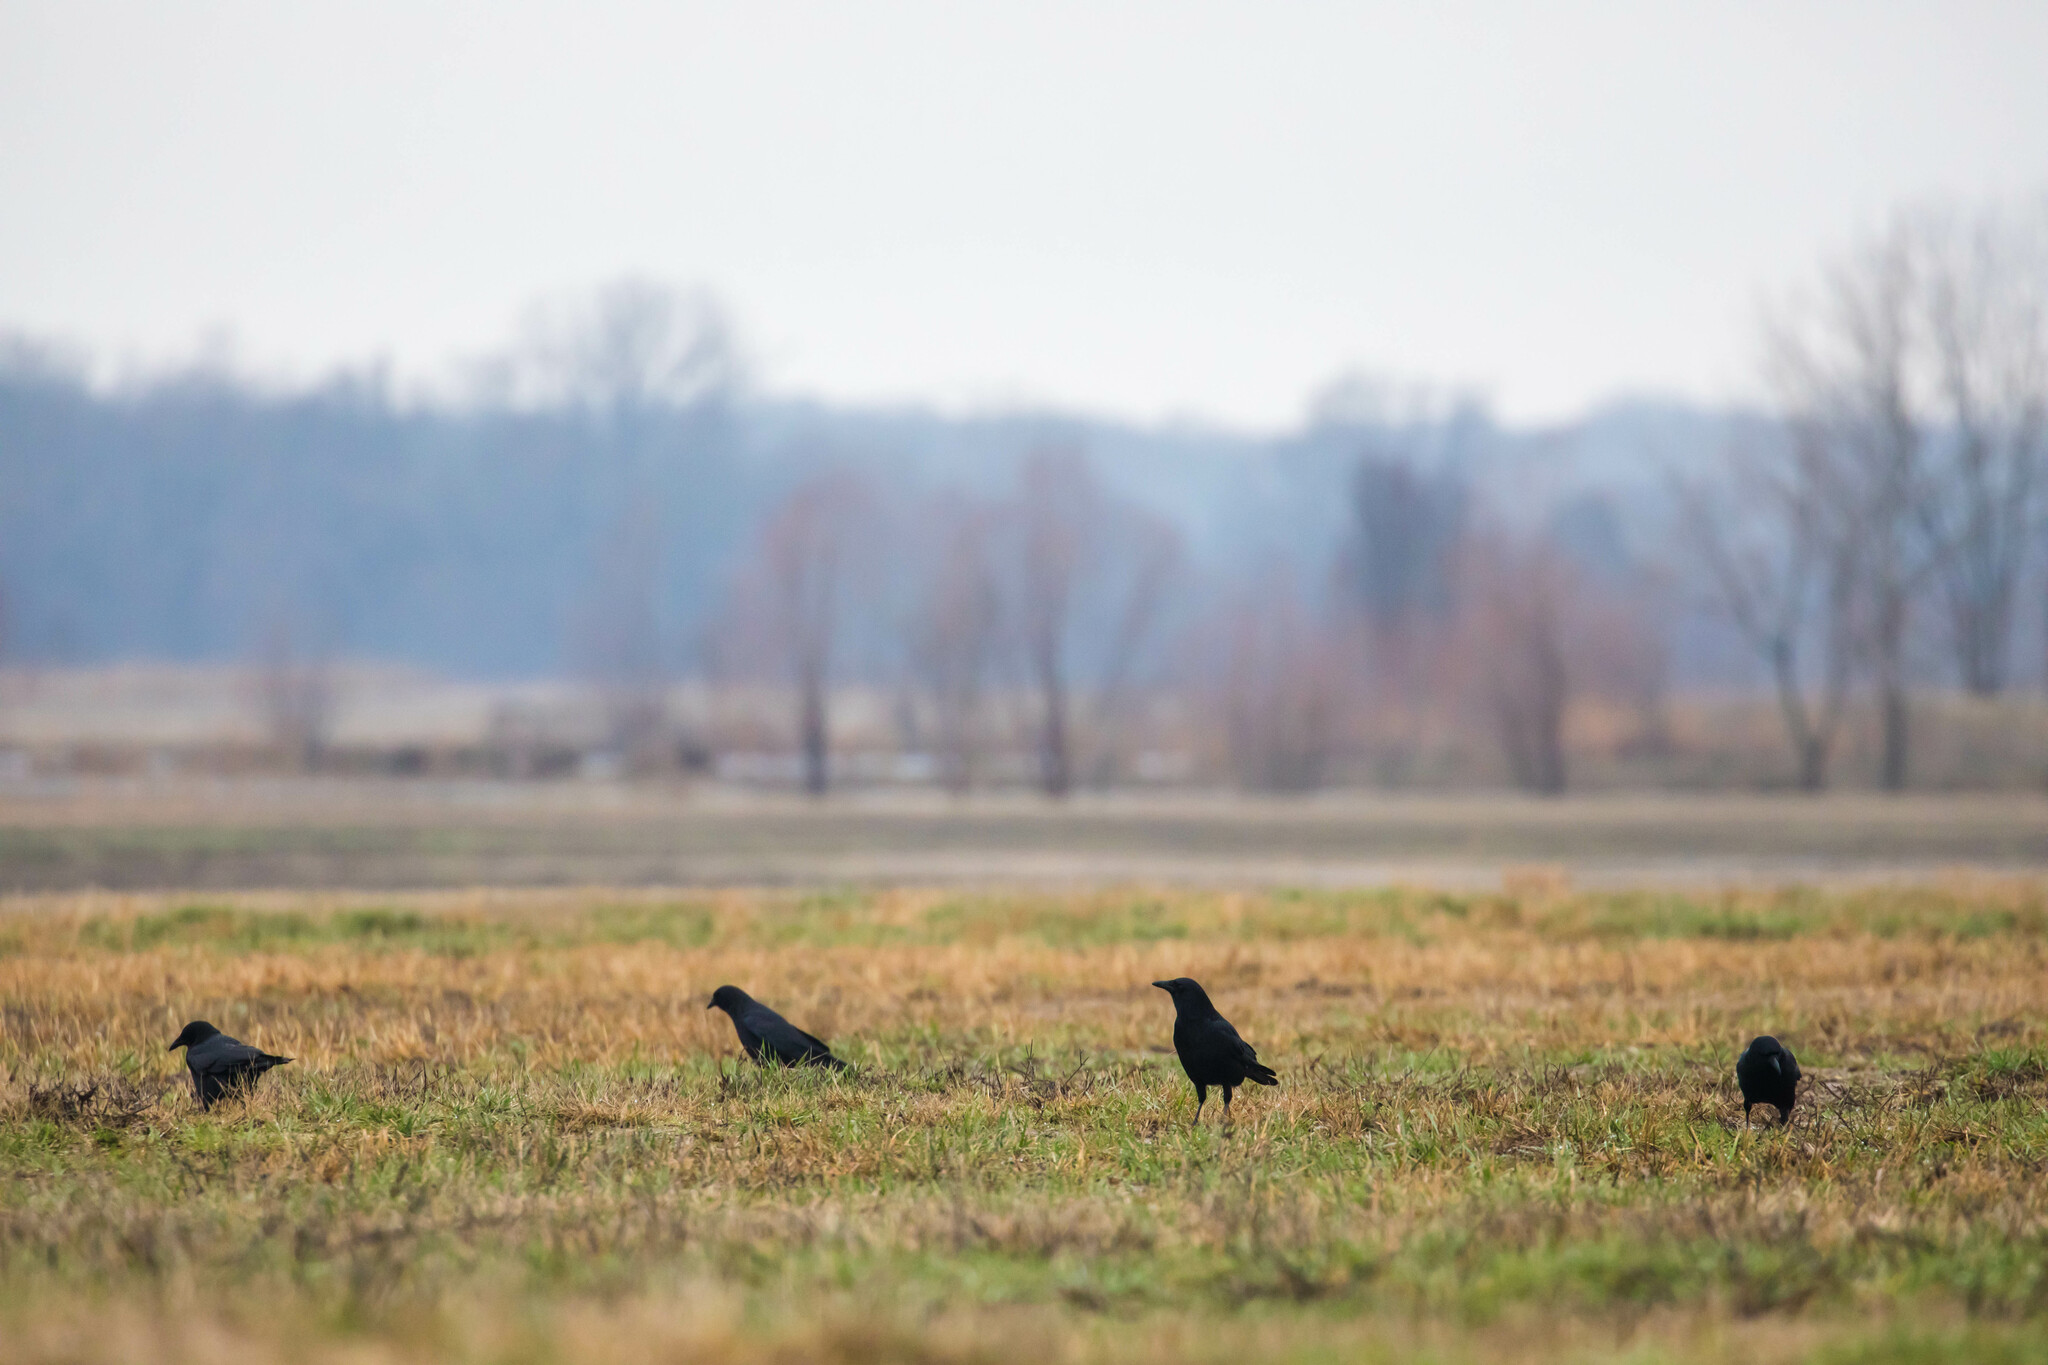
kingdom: Animalia
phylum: Chordata
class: Aves
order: Passeriformes
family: Corvidae
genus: Corvus
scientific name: Corvus brachyrhynchos
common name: American crow
